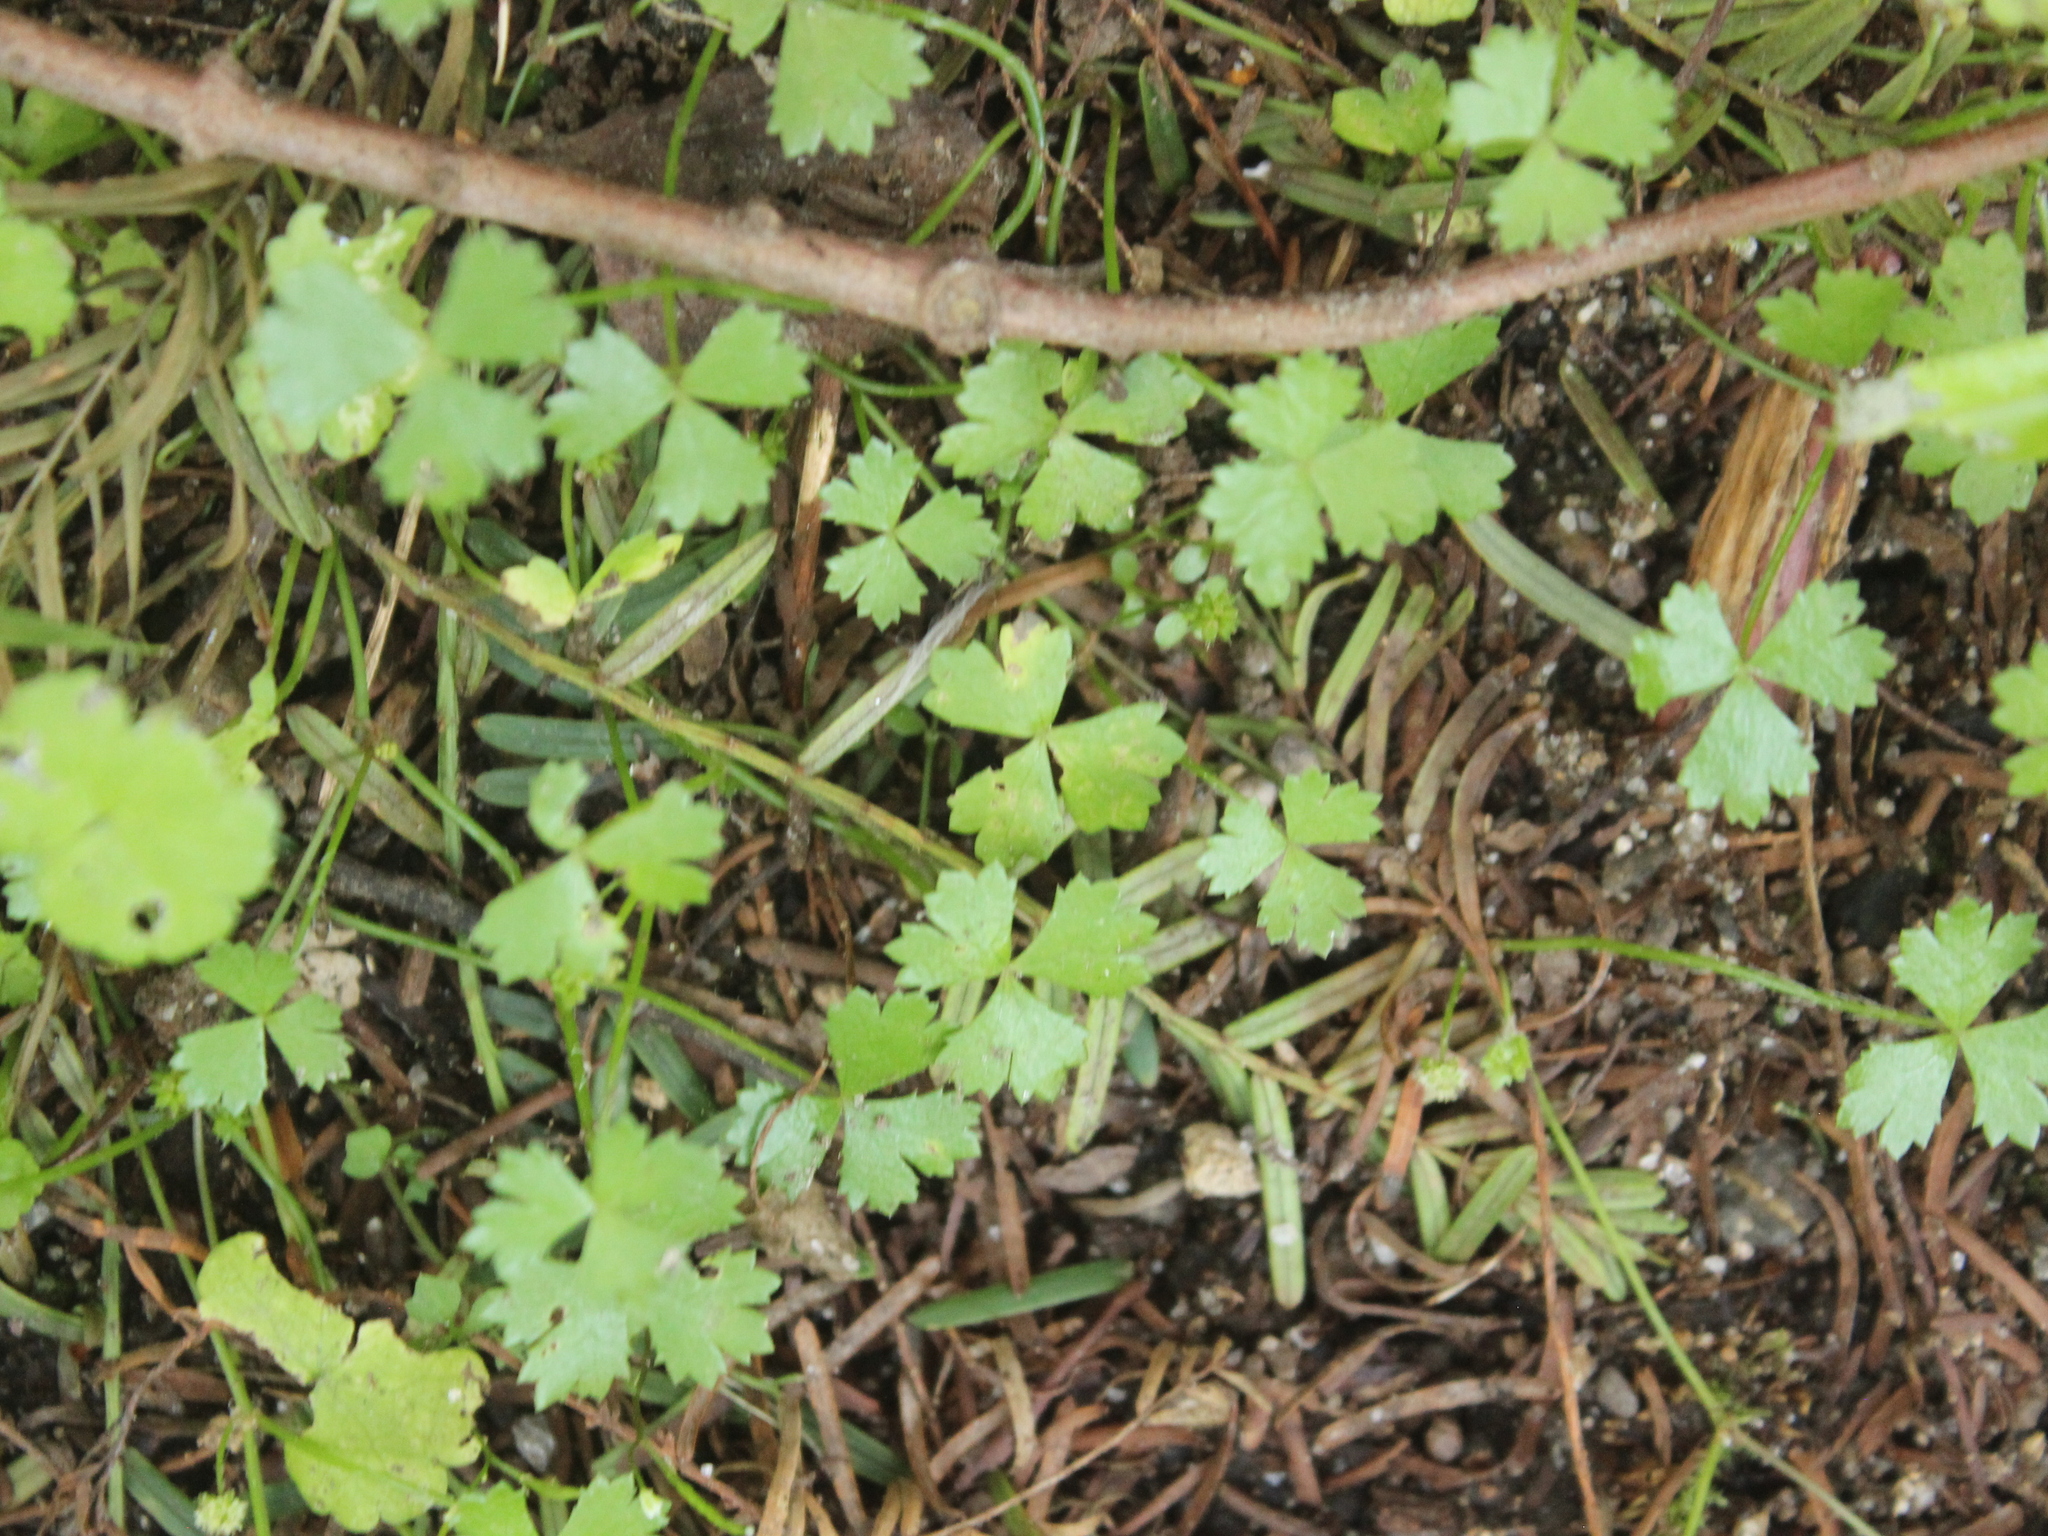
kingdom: Plantae
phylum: Tracheophyta
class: Magnoliopsida
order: Apiales
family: Araliaceae
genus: Hydrocotyle
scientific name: Hydrocotyle tripartita
